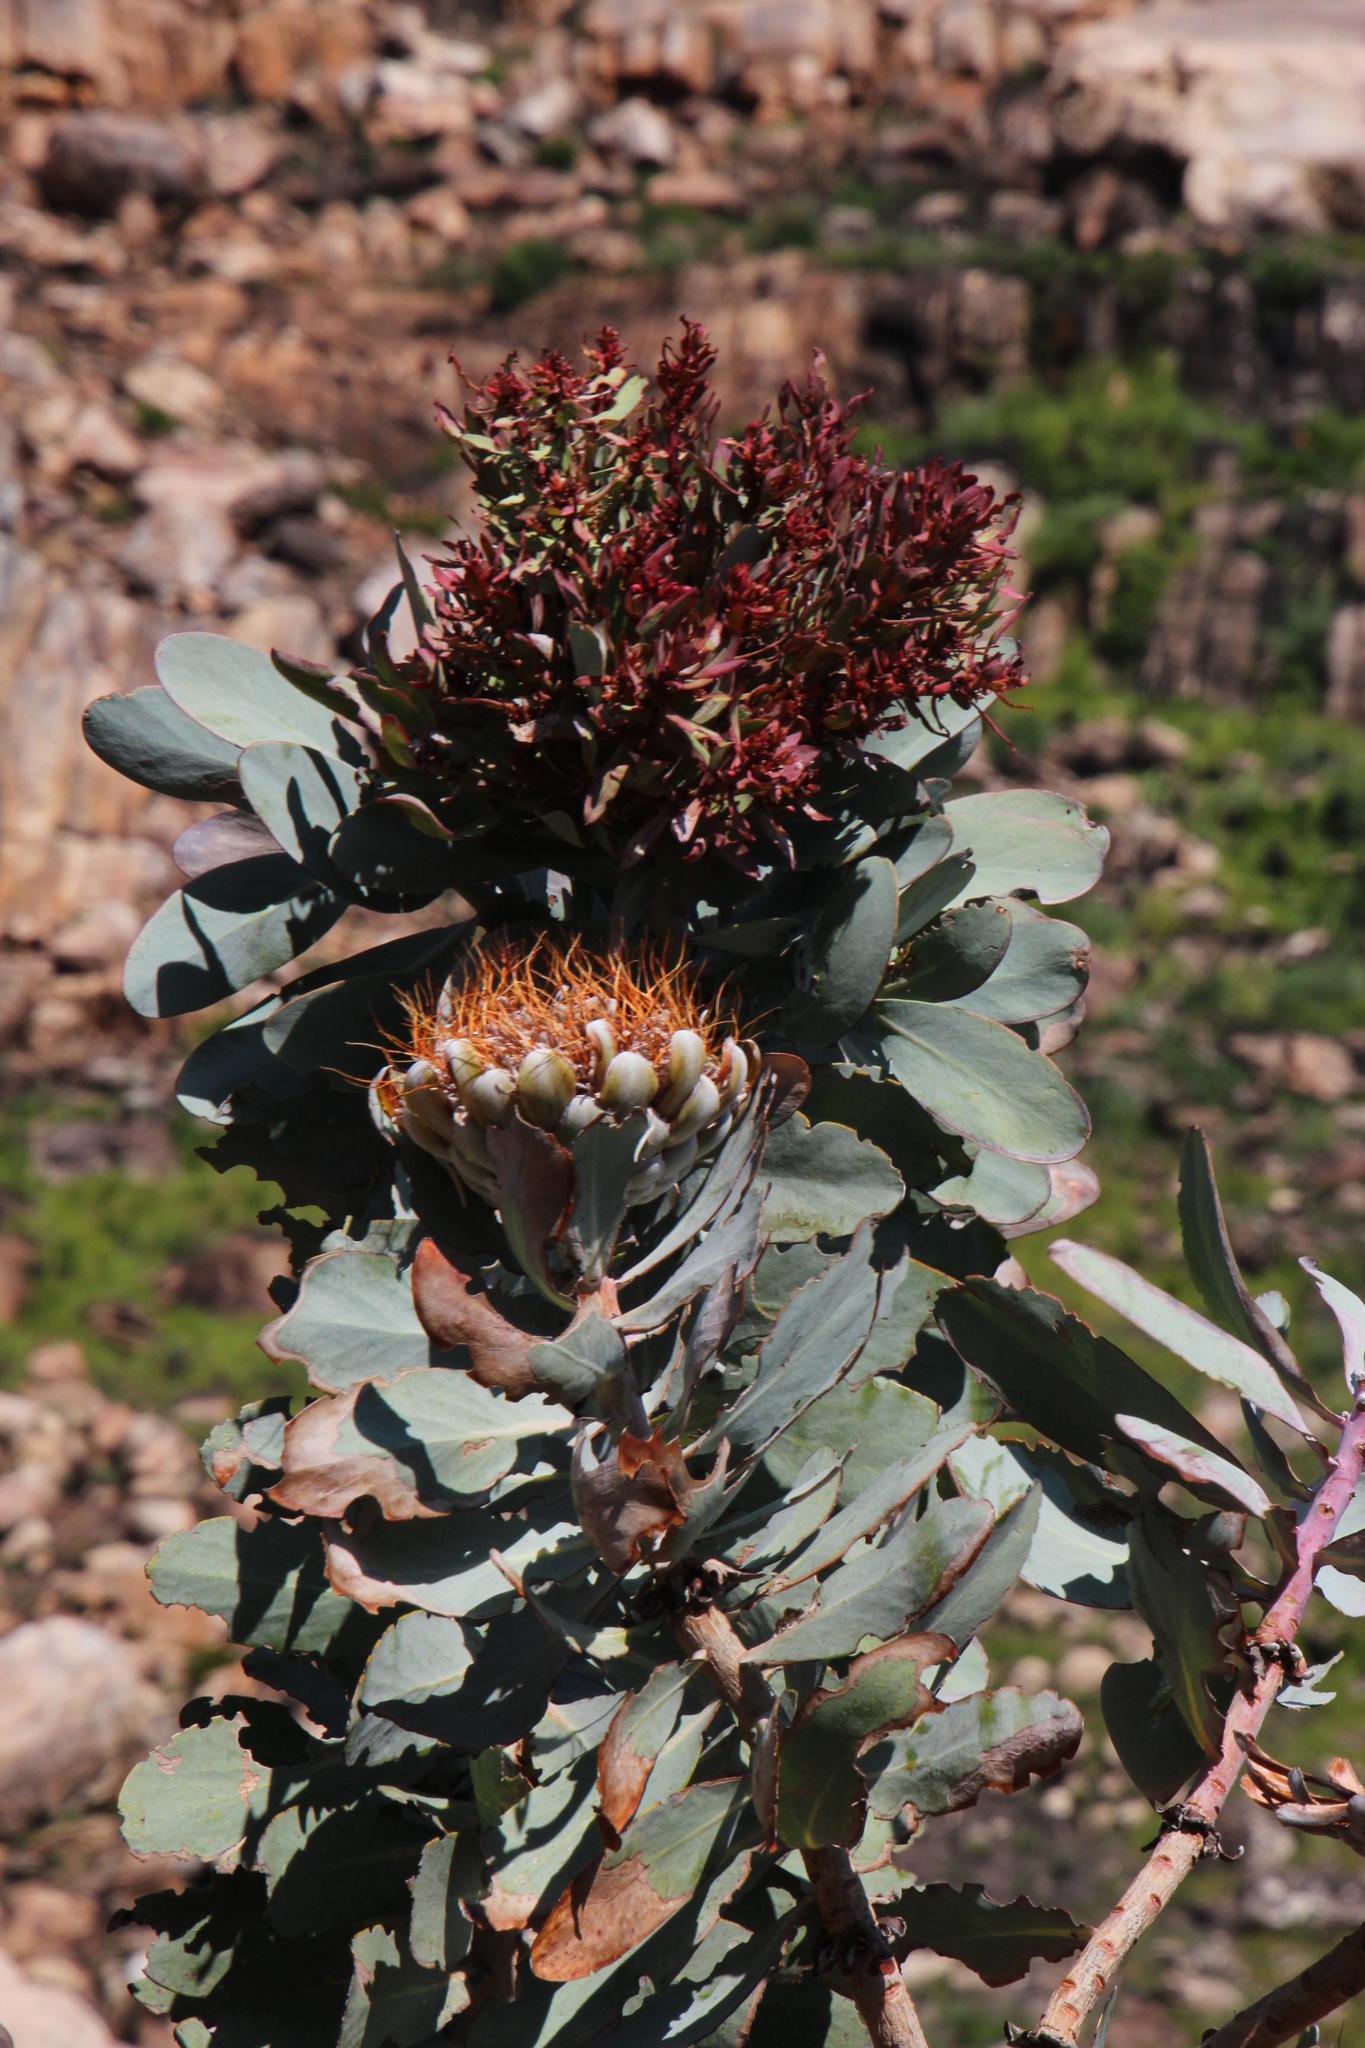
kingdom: Plantae
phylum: Tracheophyta
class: Magnoliopsida
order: Proteales
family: Proteaceae
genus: Protea
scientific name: Protea nitida
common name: Tree protea
